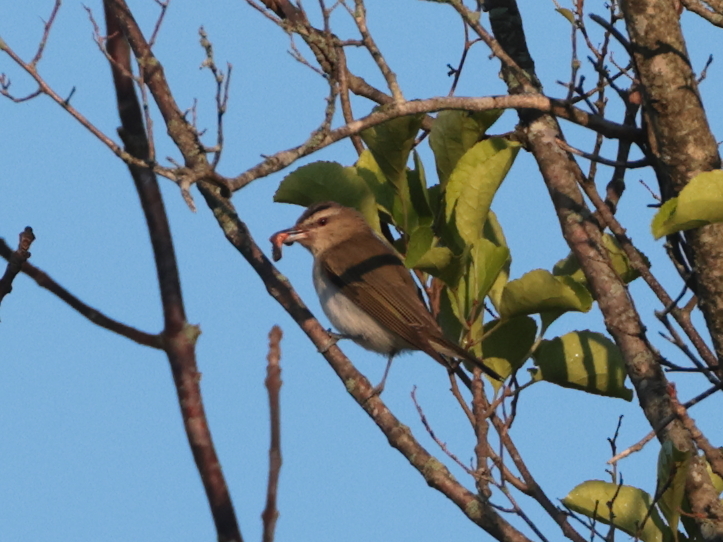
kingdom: Animalia
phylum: Chordata
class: Aves
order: Passeriformes
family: Vireonidae
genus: Vireo
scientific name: Vireo olivaceus
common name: Red-eyed vireo
